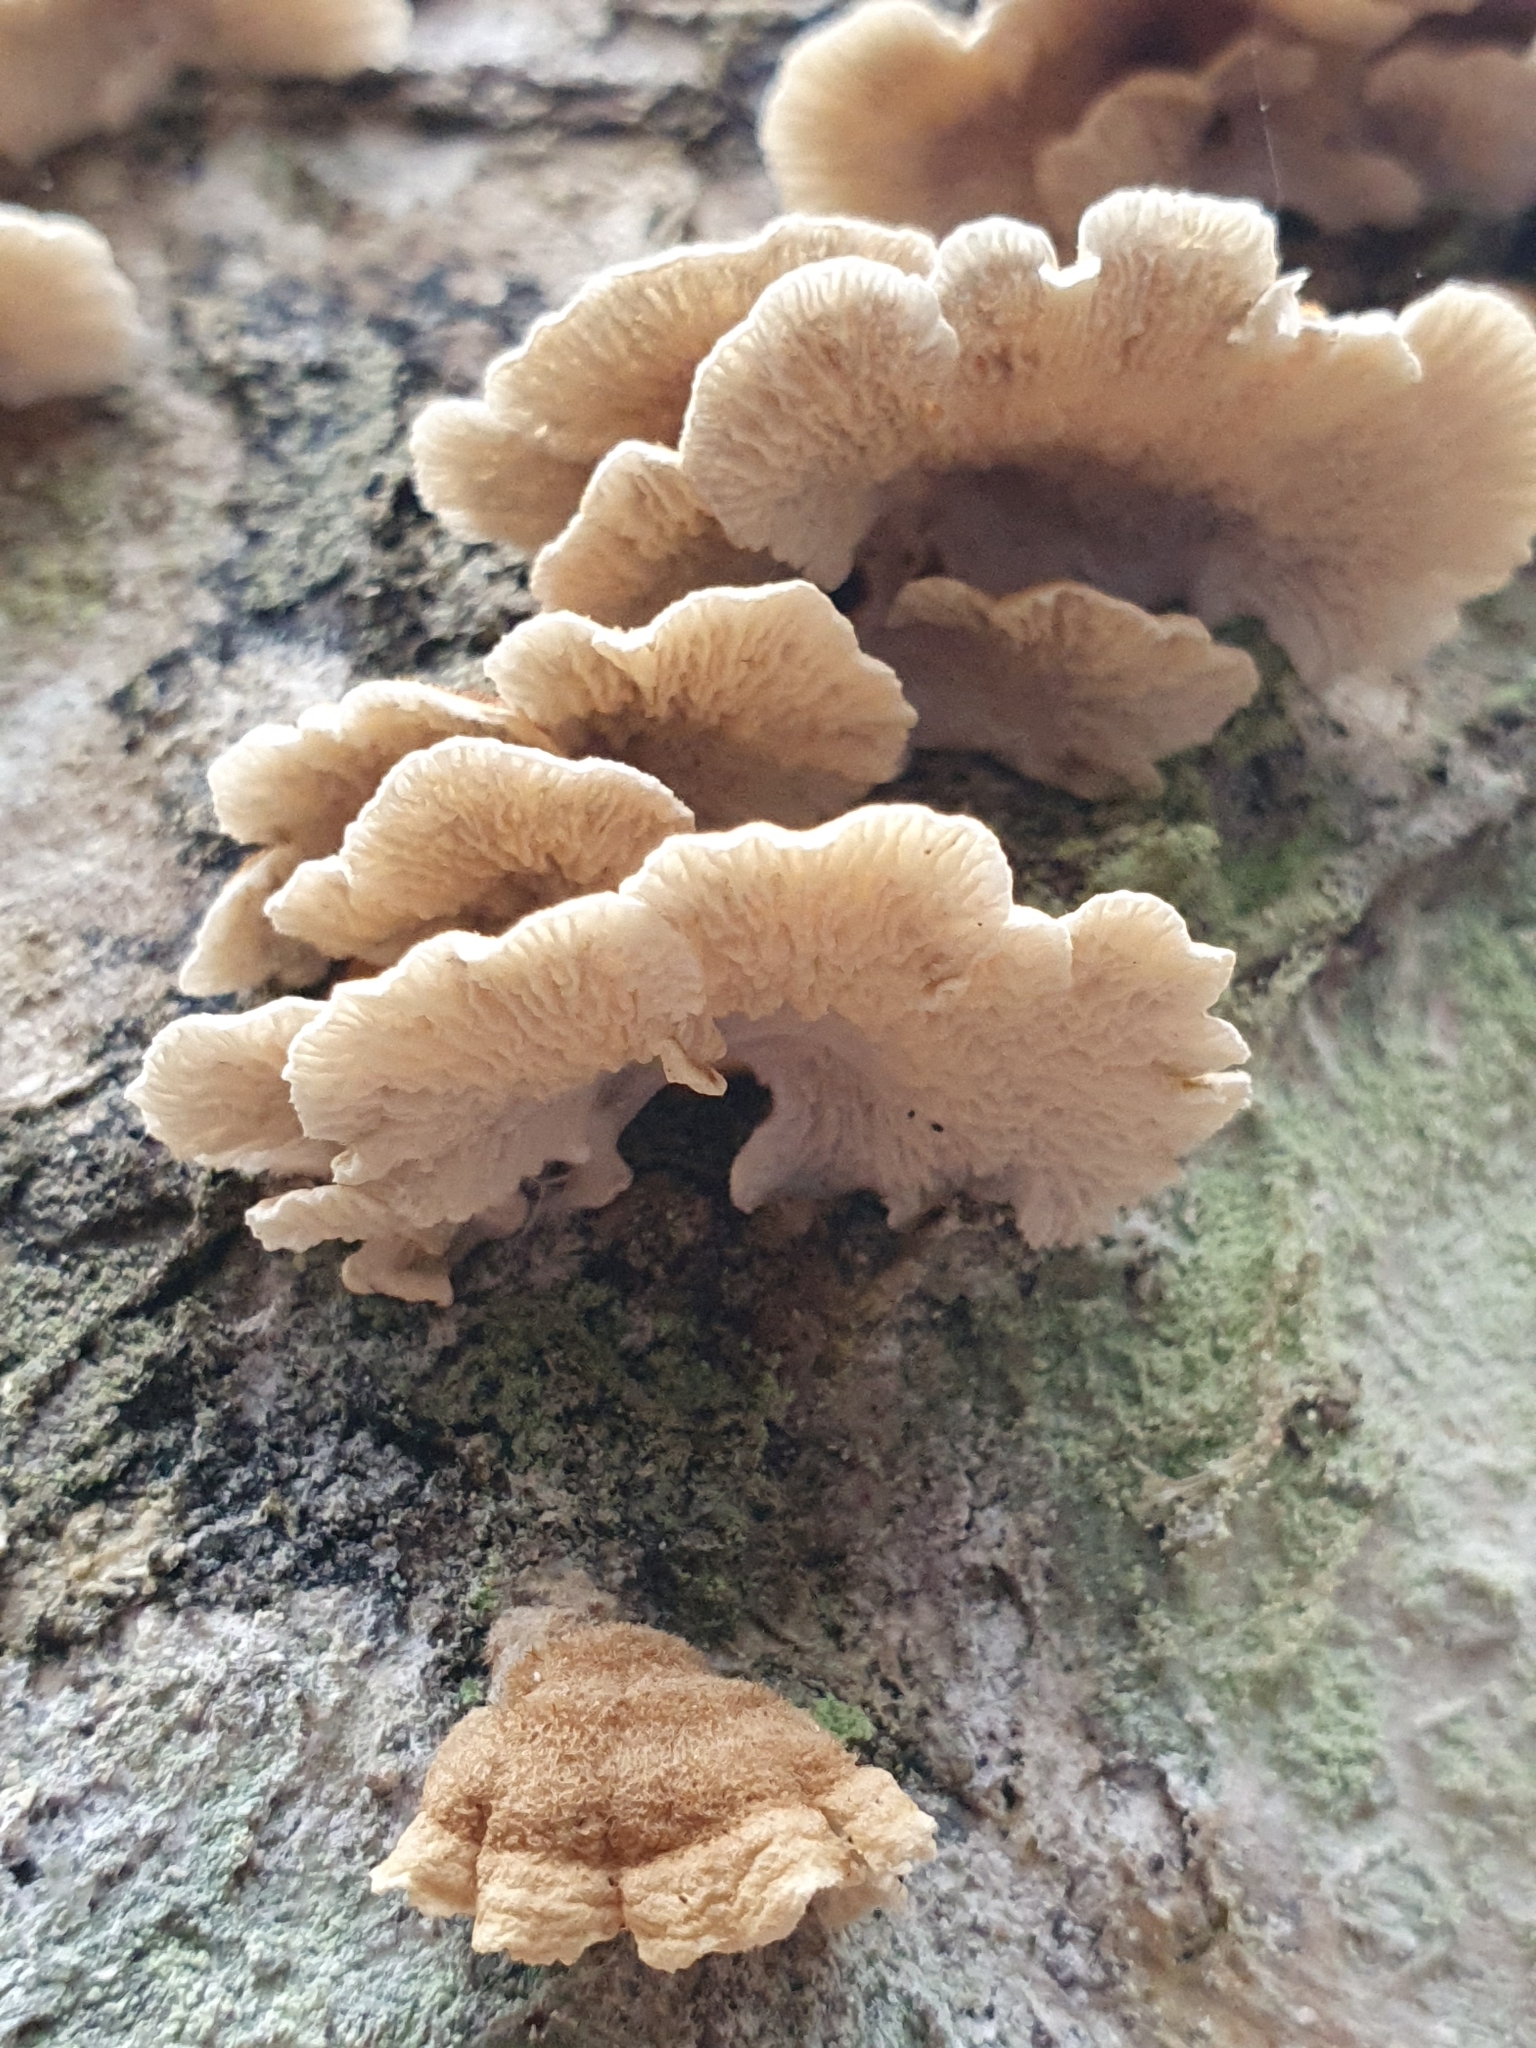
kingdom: Fungi
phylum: Basidiomycota
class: Agaricomycetes
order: Amylocorticiales
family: Amylocorticiaceae
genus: Plicaturopsis
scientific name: Plicaturopsis crispa
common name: Crimped gill
